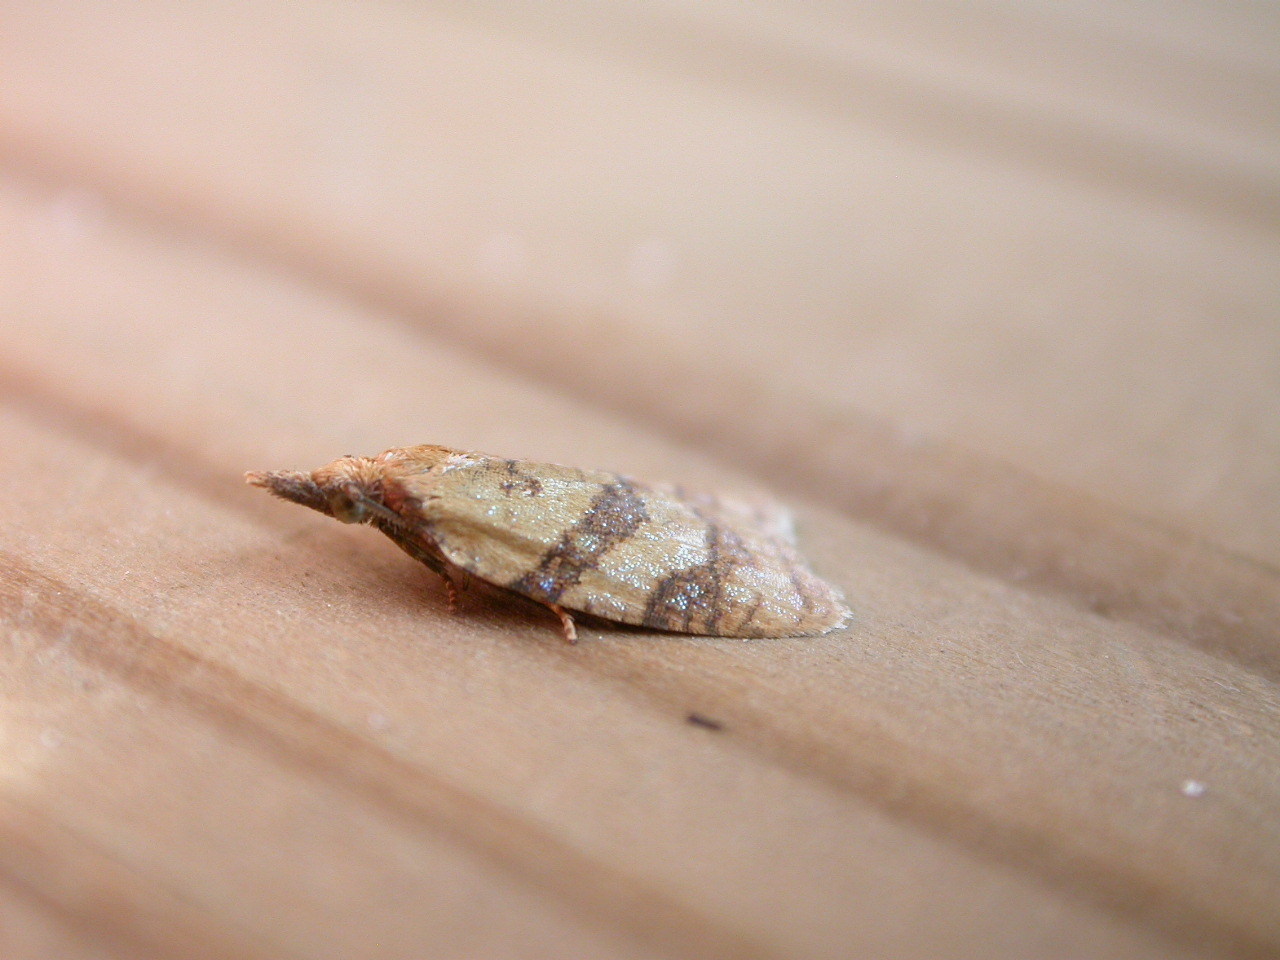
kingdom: Animalia
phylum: Arthropoda
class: Insecta
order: Lepidoptera
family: Tortricidae
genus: Sparganothis
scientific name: Sparganothis pilleriana
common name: Vine leaf-roller tortrix, long-nosed twist
